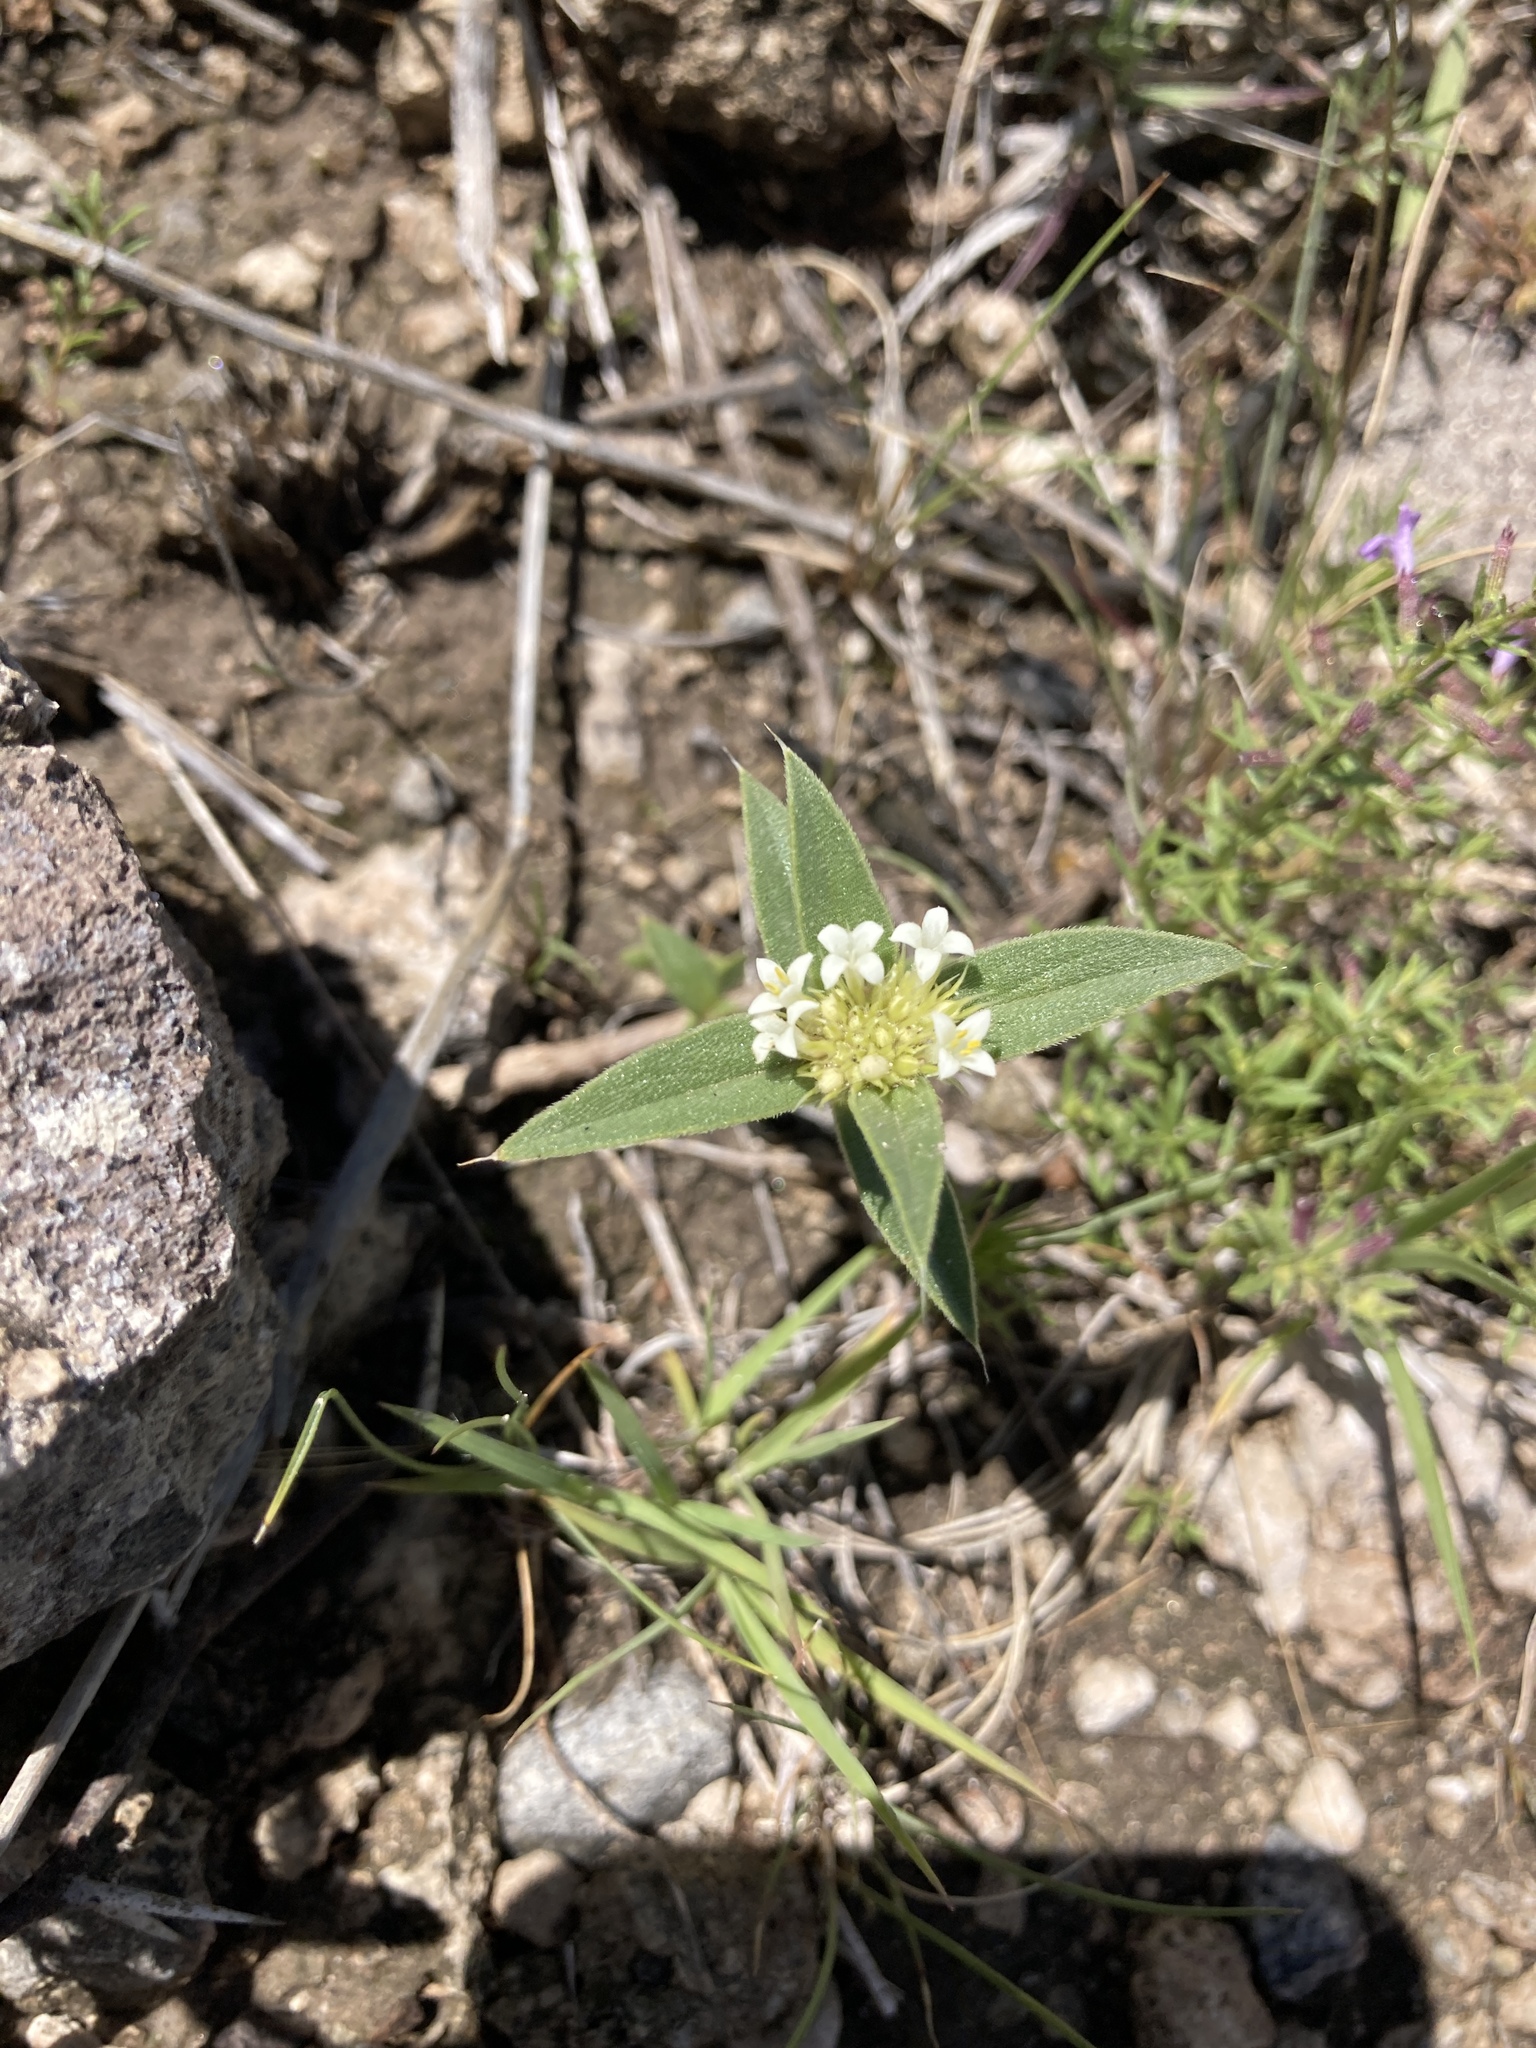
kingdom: Plantae
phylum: Tracheophyta
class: Magnoliopsida
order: Gentianales
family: Rubiaceae
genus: Mitracarpus
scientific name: Mitracarpus megapotamicus
